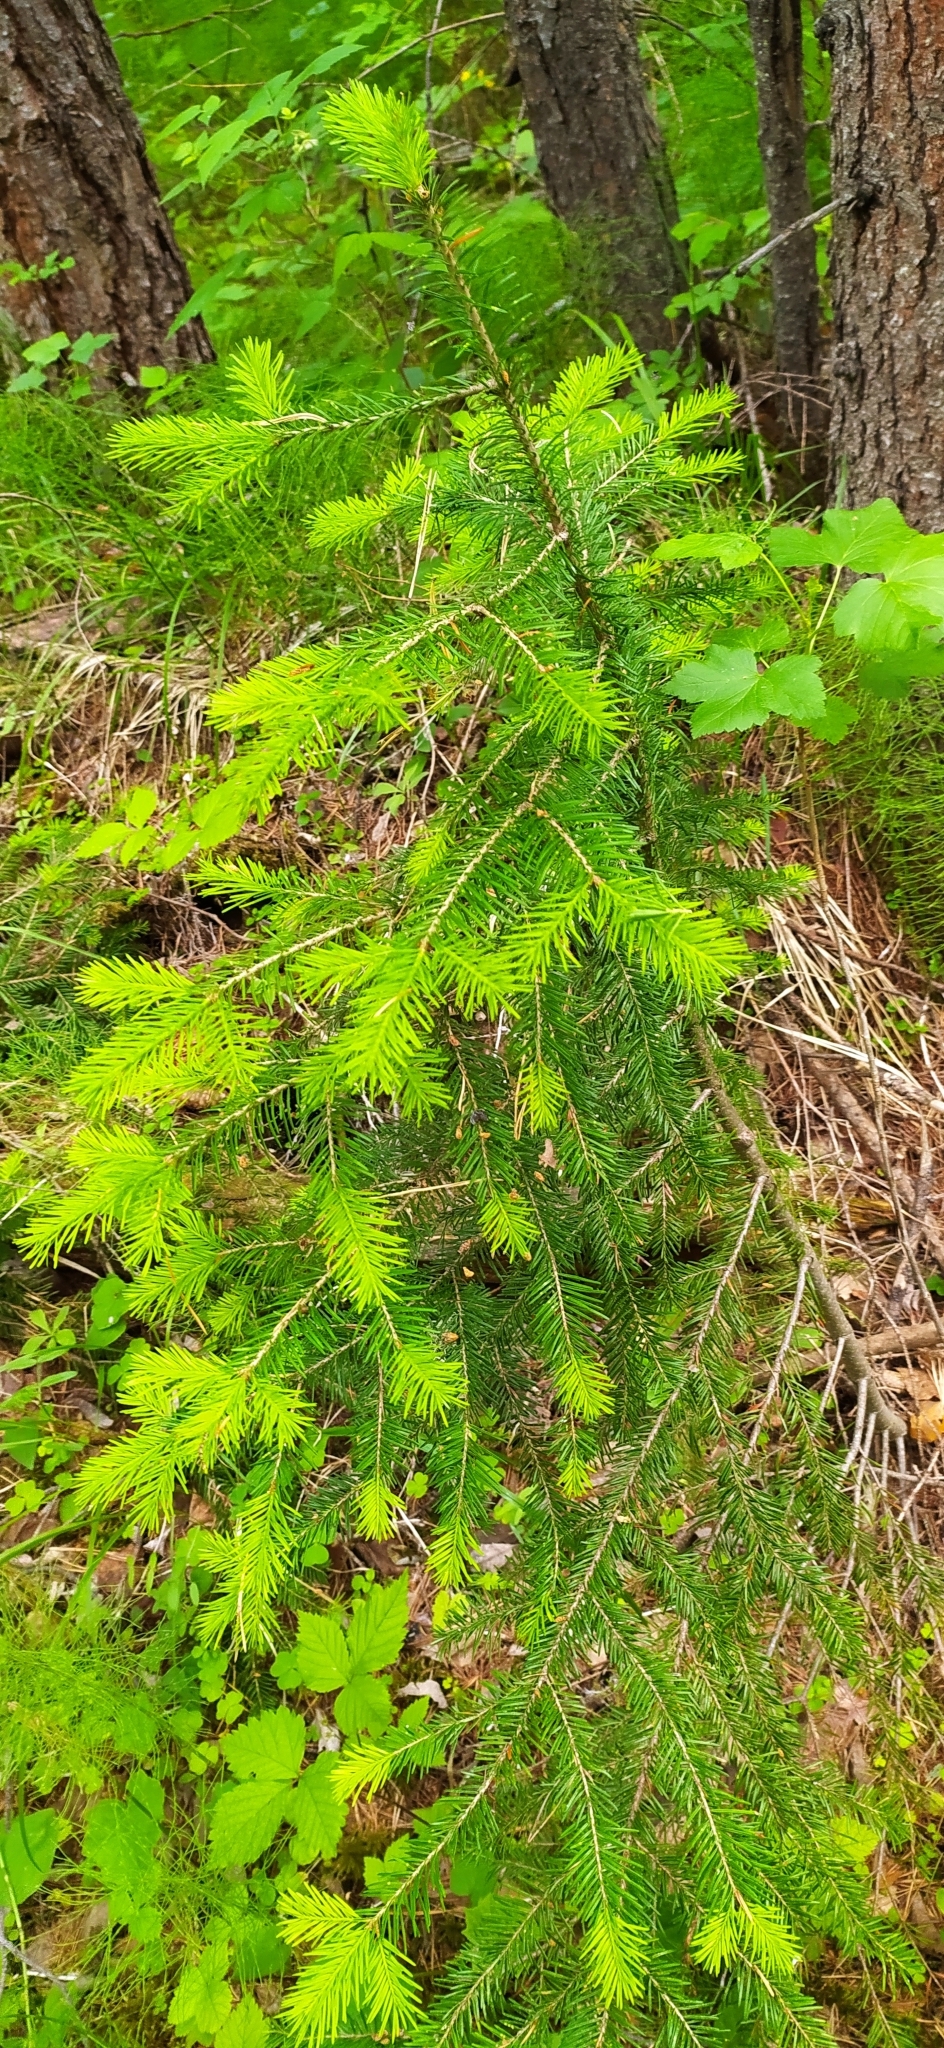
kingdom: Plantae
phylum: Tracheophyta
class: Pinopsida
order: Pinales
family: Pinaceae
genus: Abies
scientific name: Abies sibirica
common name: Siberian fir
